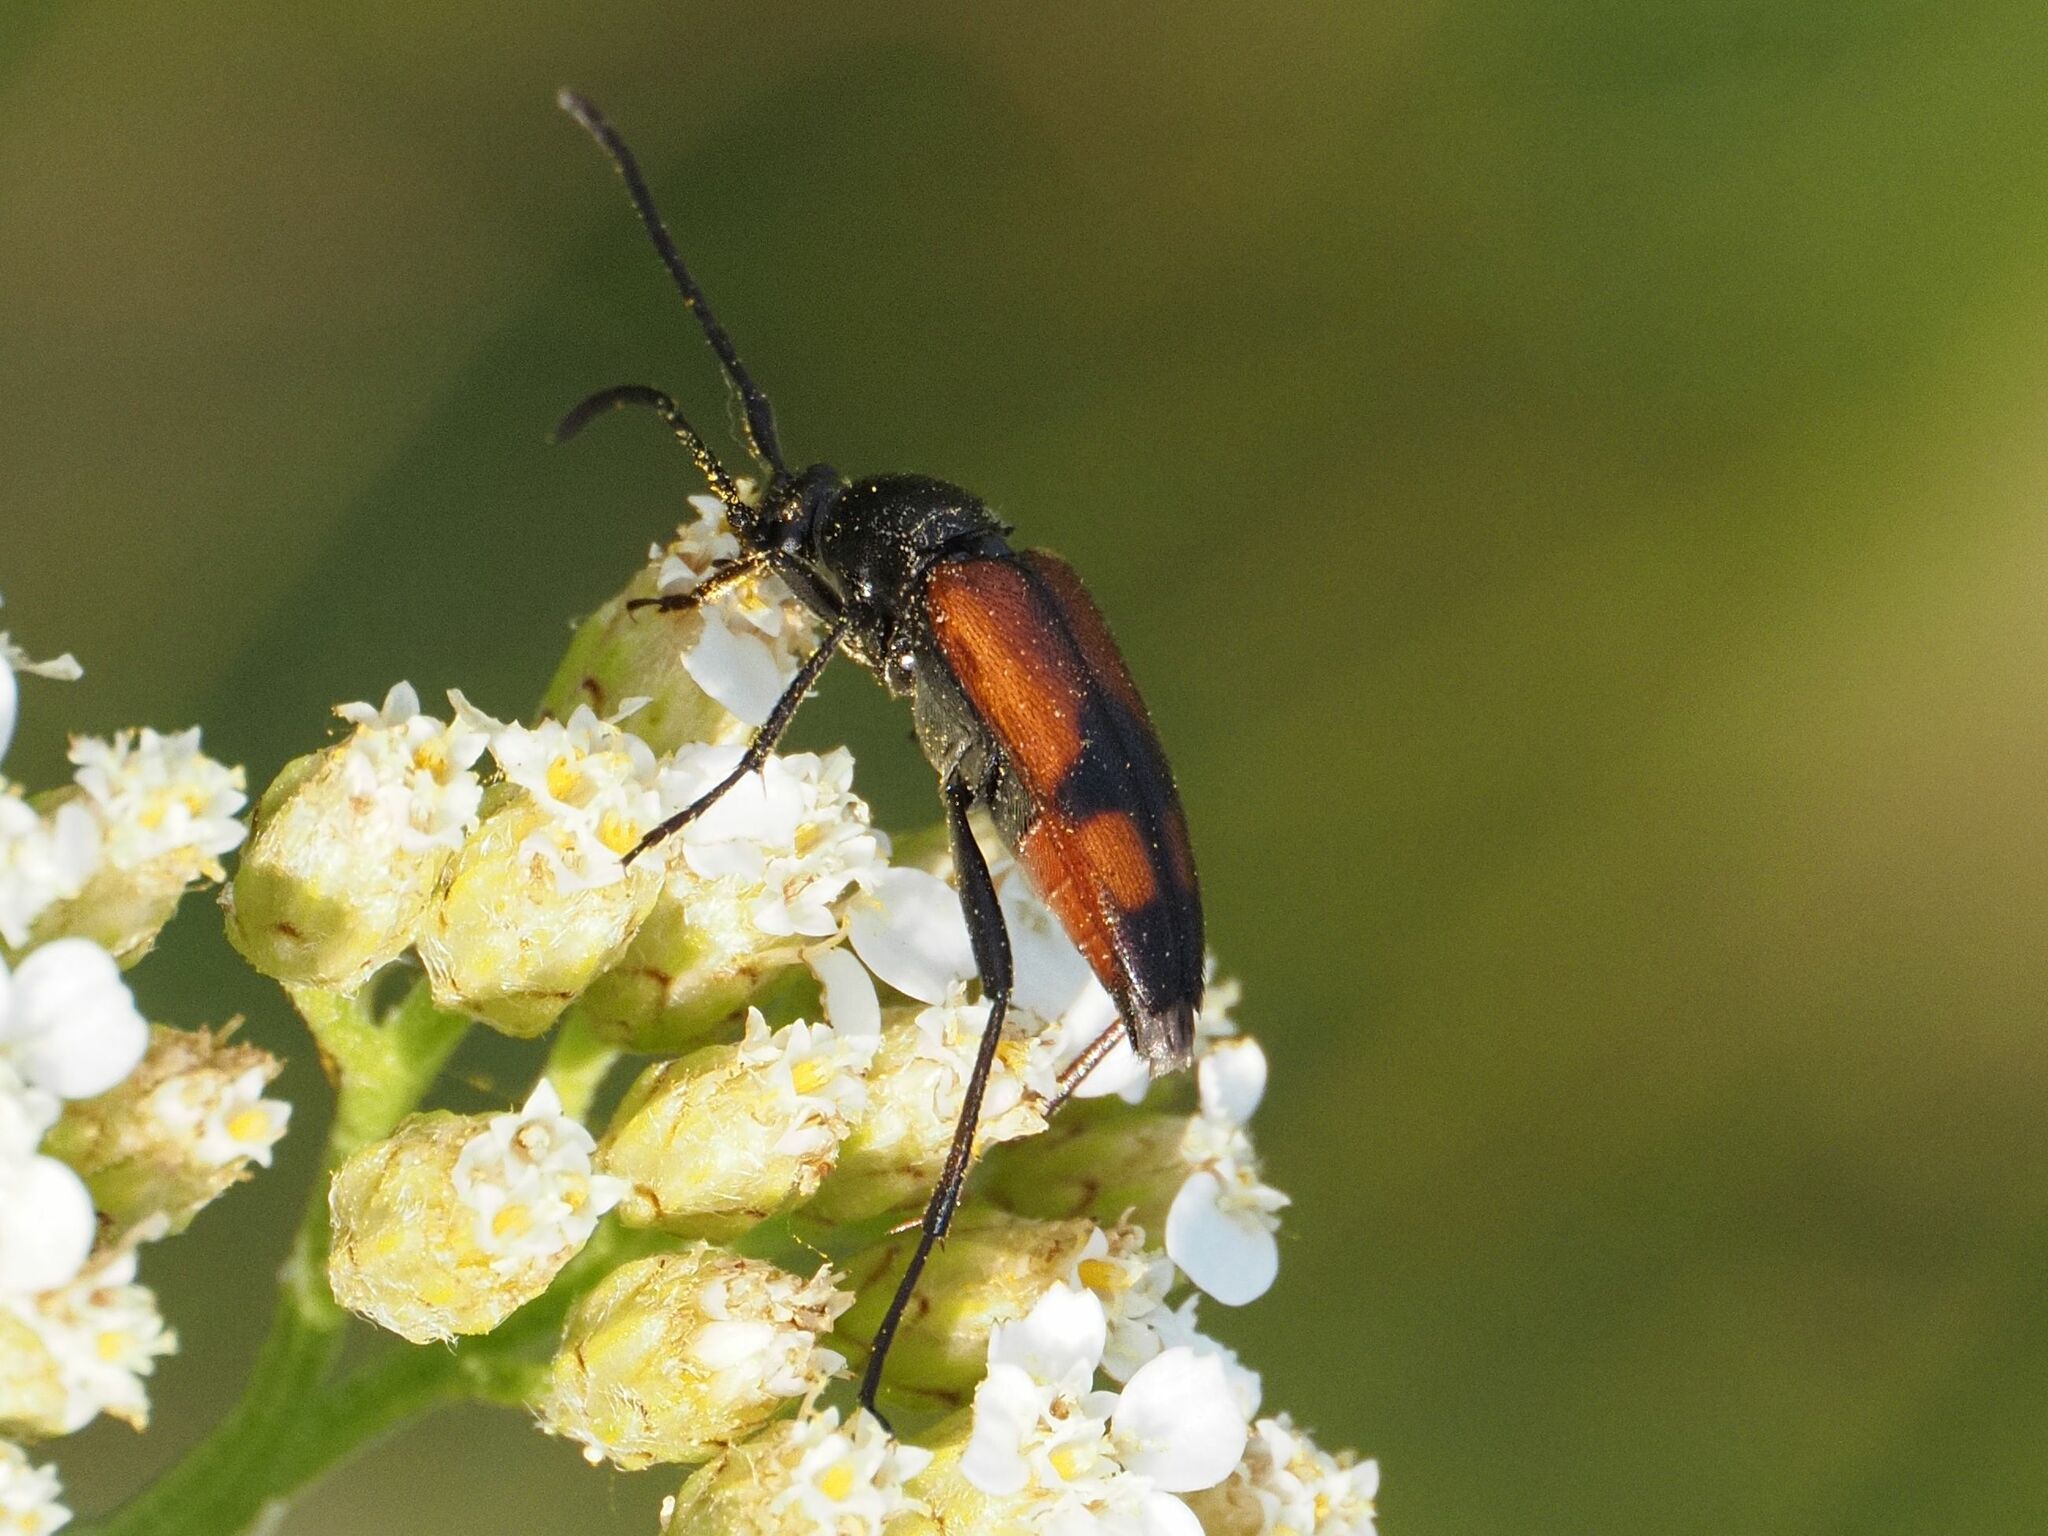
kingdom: Animalia
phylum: Arthropoda
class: Insecta
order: Coleoptera
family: Cerambycidae
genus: Stenurella
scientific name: Stenurella bifasciata
